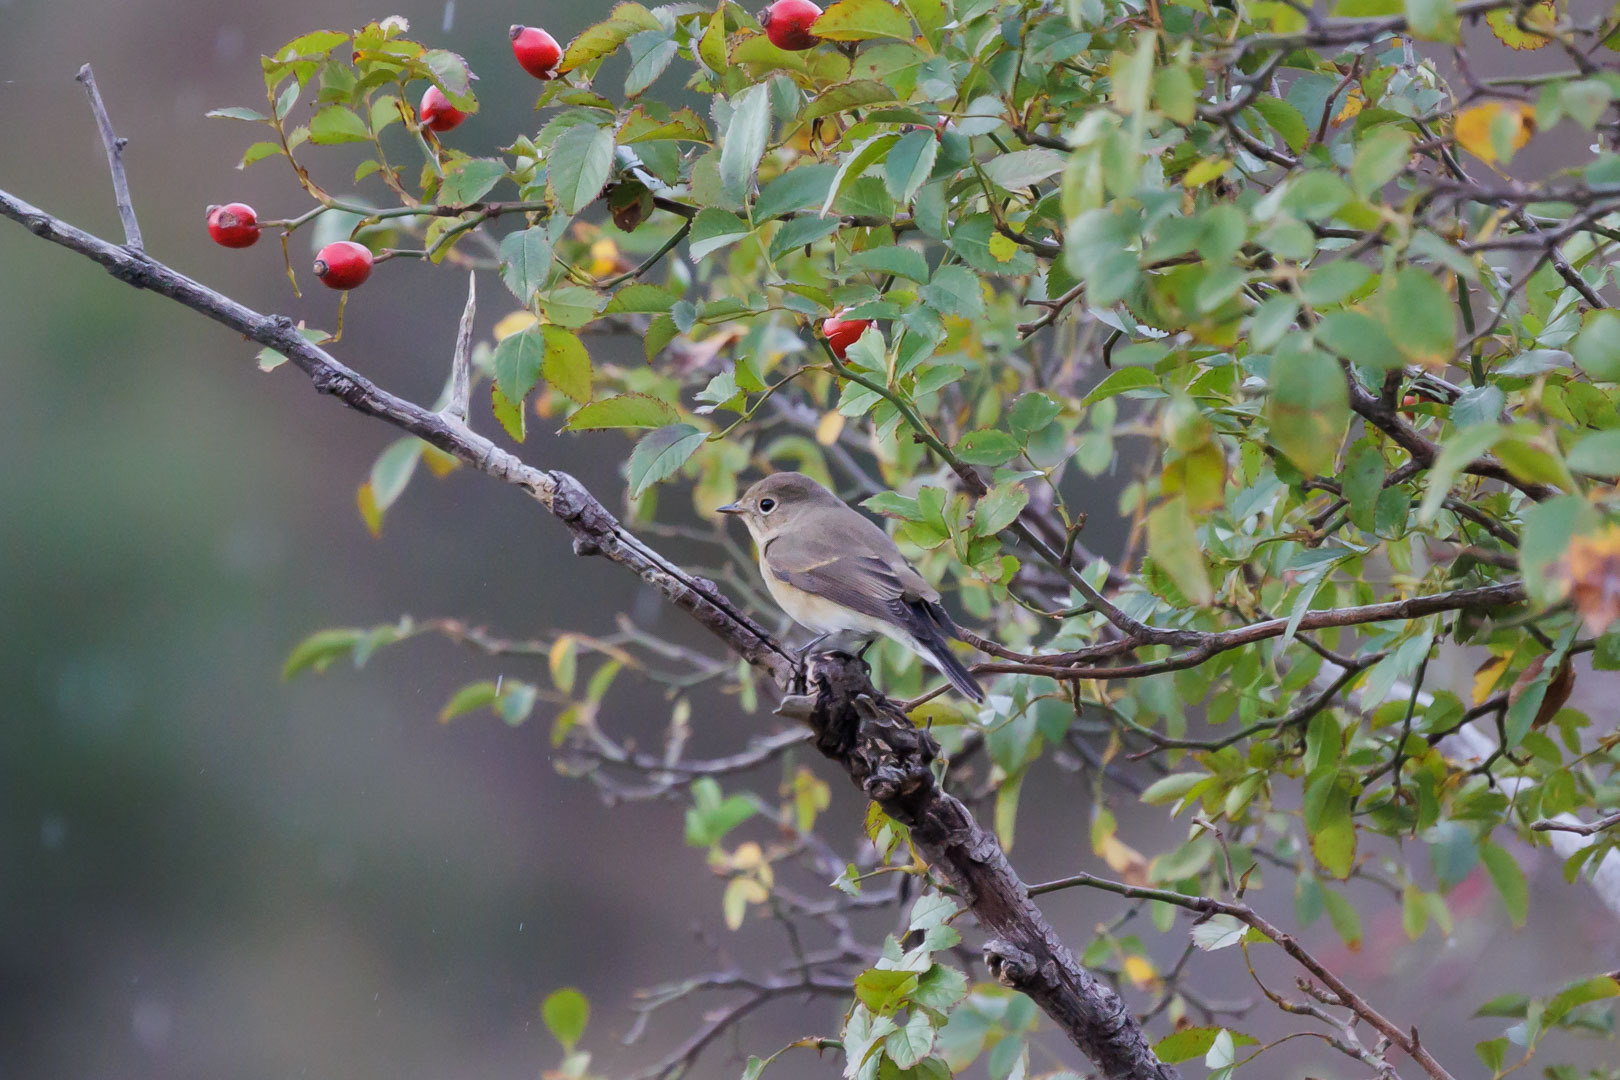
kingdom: Animalia
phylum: Chordata
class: Aves
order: Passeriformes
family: Muscicapidae
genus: Ficedula
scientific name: Ficedula parva
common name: Red-breasted flycatcher
